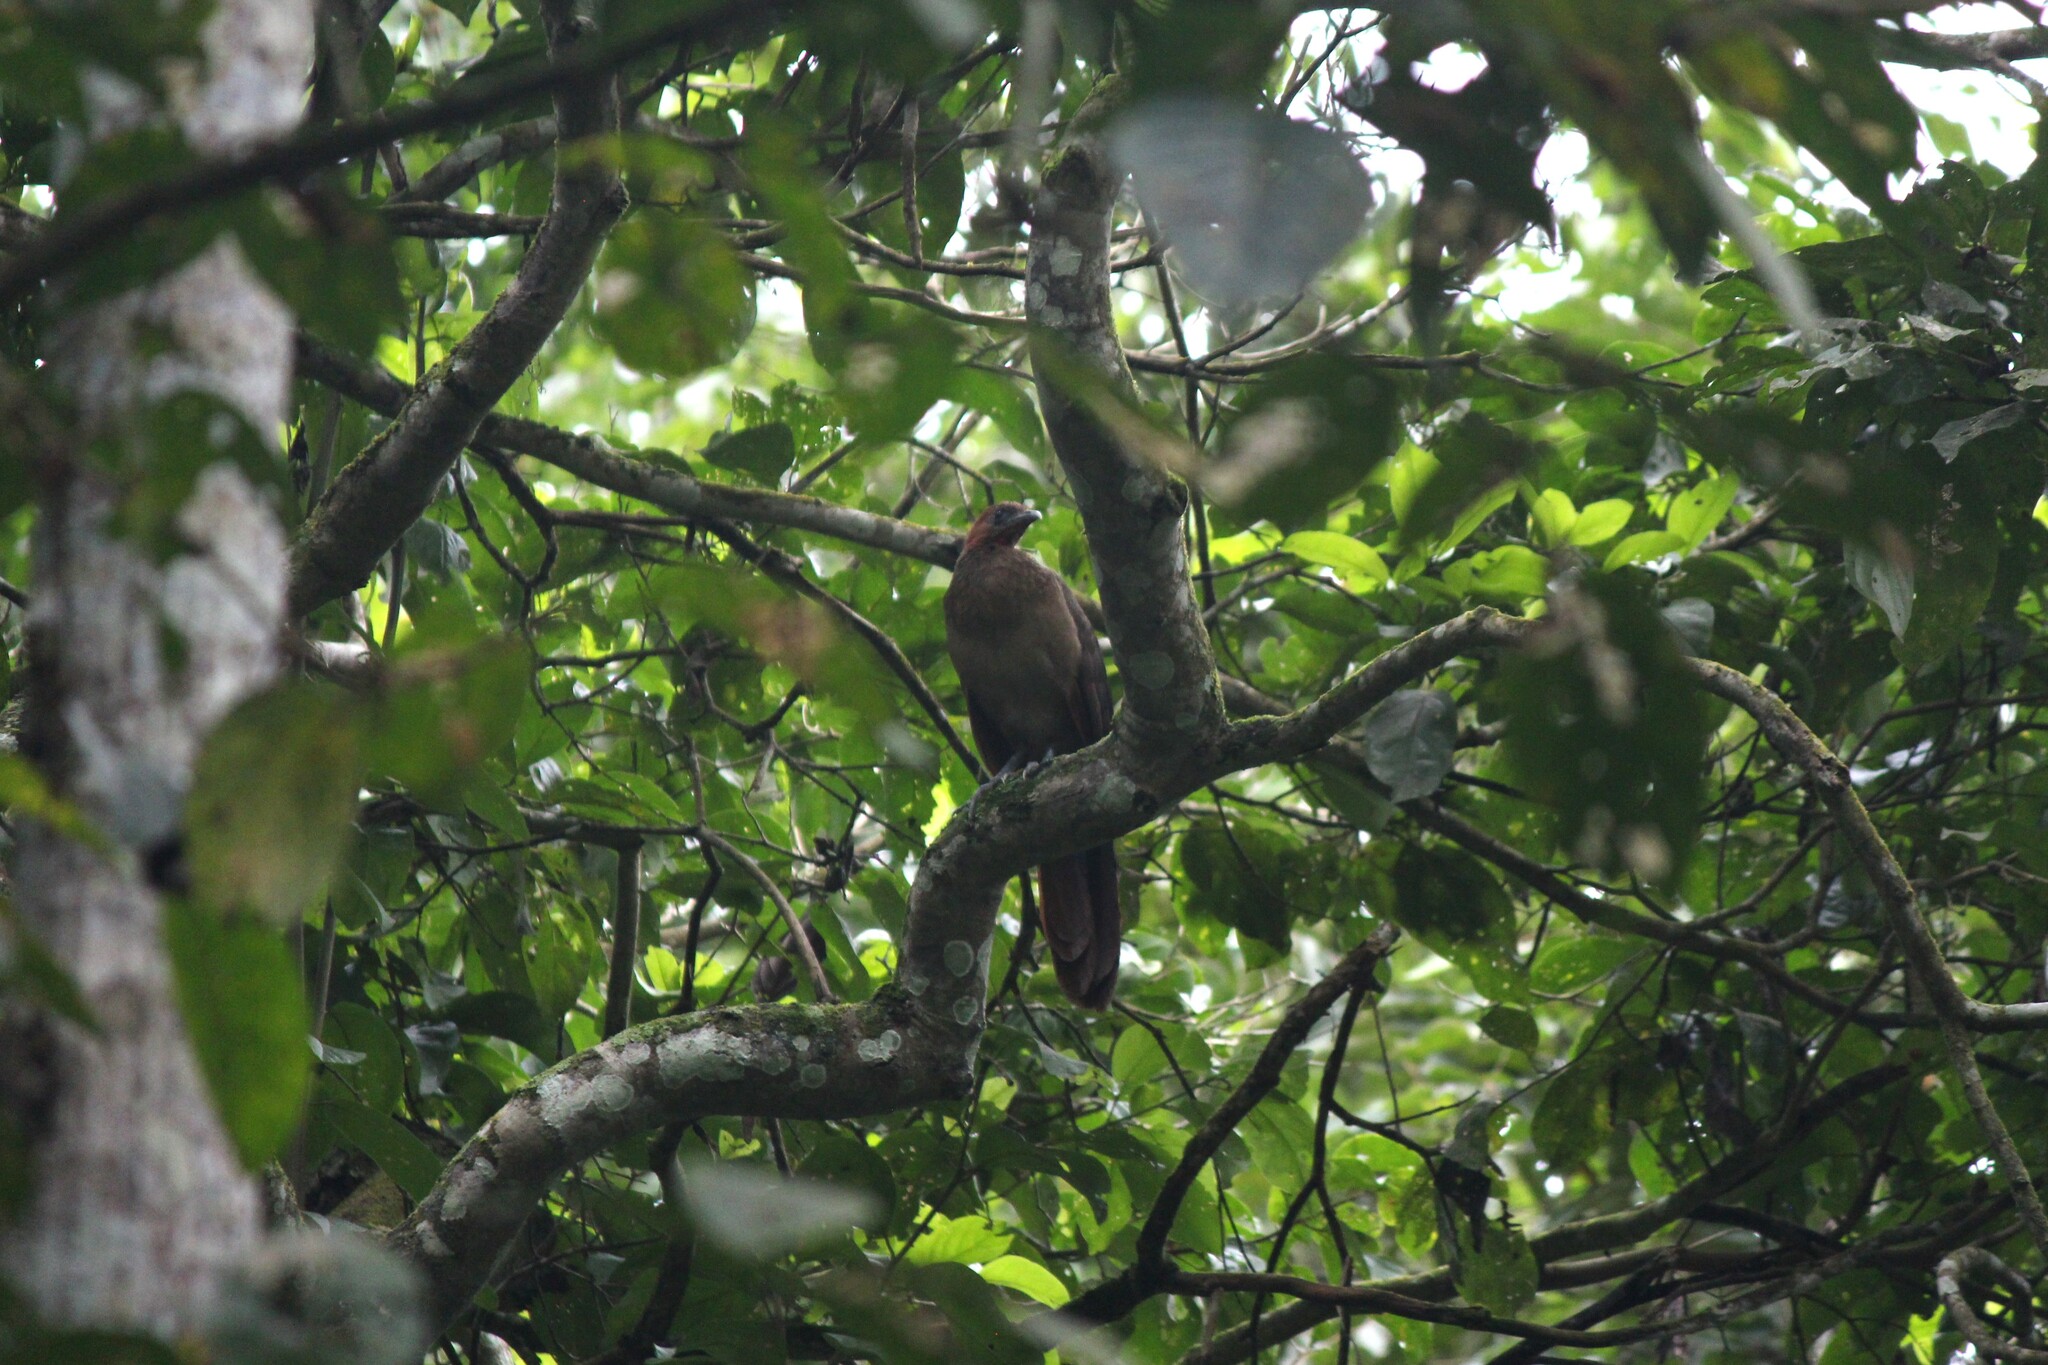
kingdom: Animalia
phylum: Chordata
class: Aves
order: Galliformes
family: Cracidae
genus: Ortalis
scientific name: Ortalis erythroptera
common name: Rufous-headed chachalaca
